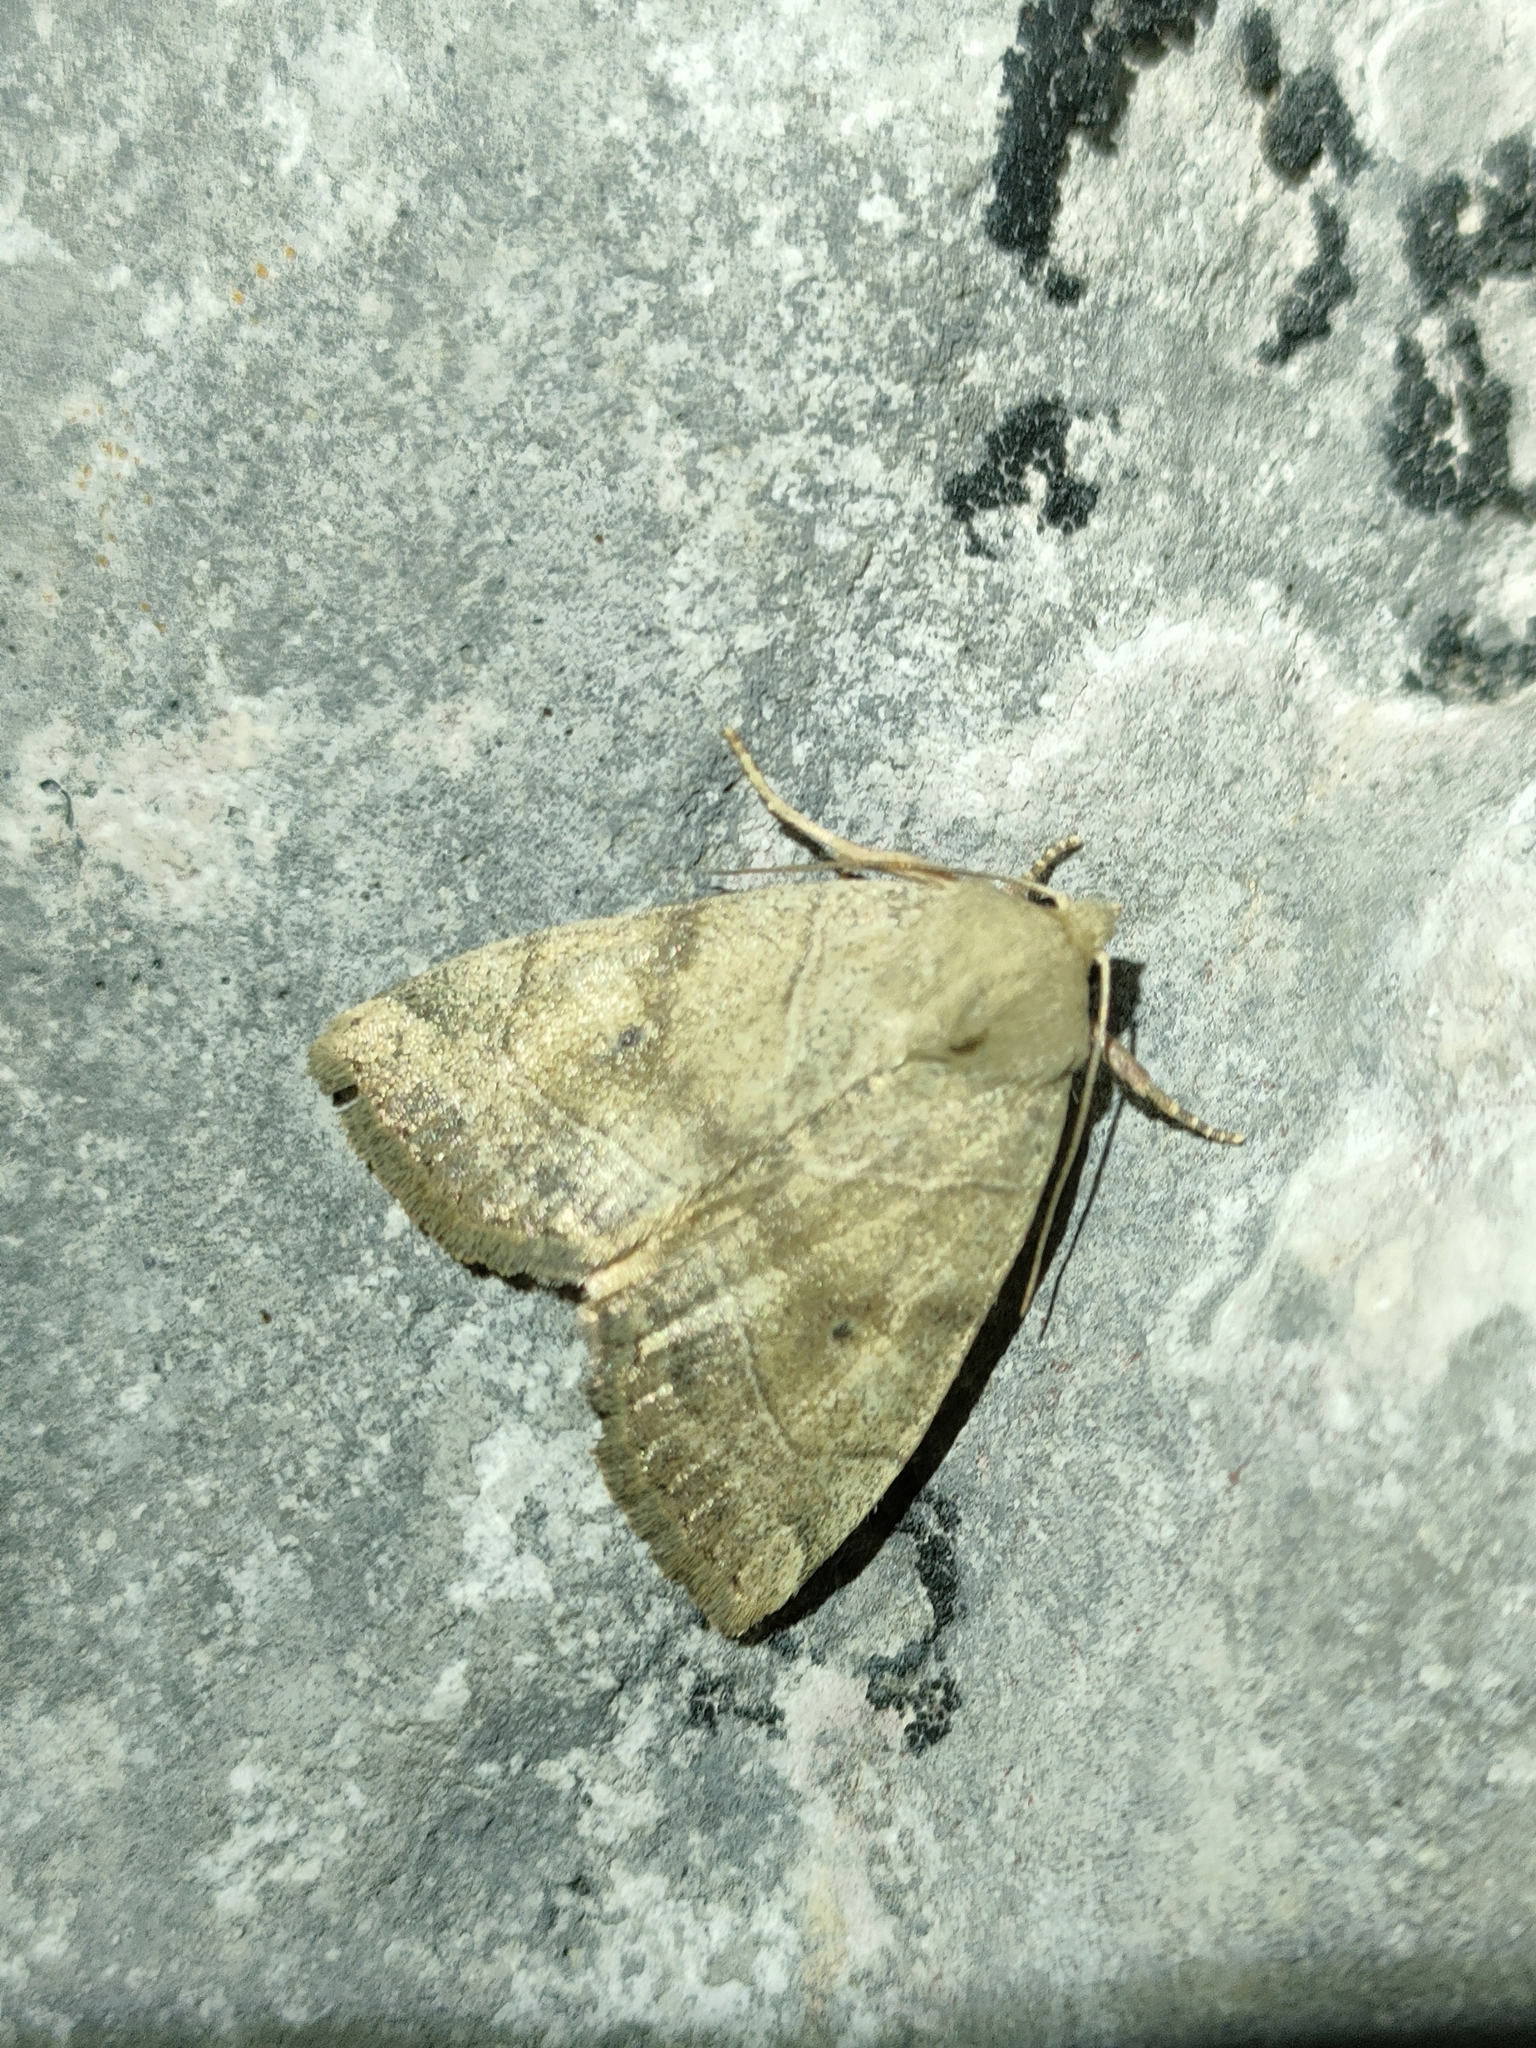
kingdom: Animalia
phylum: Arthropoda
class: Insecta
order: Lepidoptera
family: Noctuidae
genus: Cosmia
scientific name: Cosmia trapezina
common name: Dun-bar
